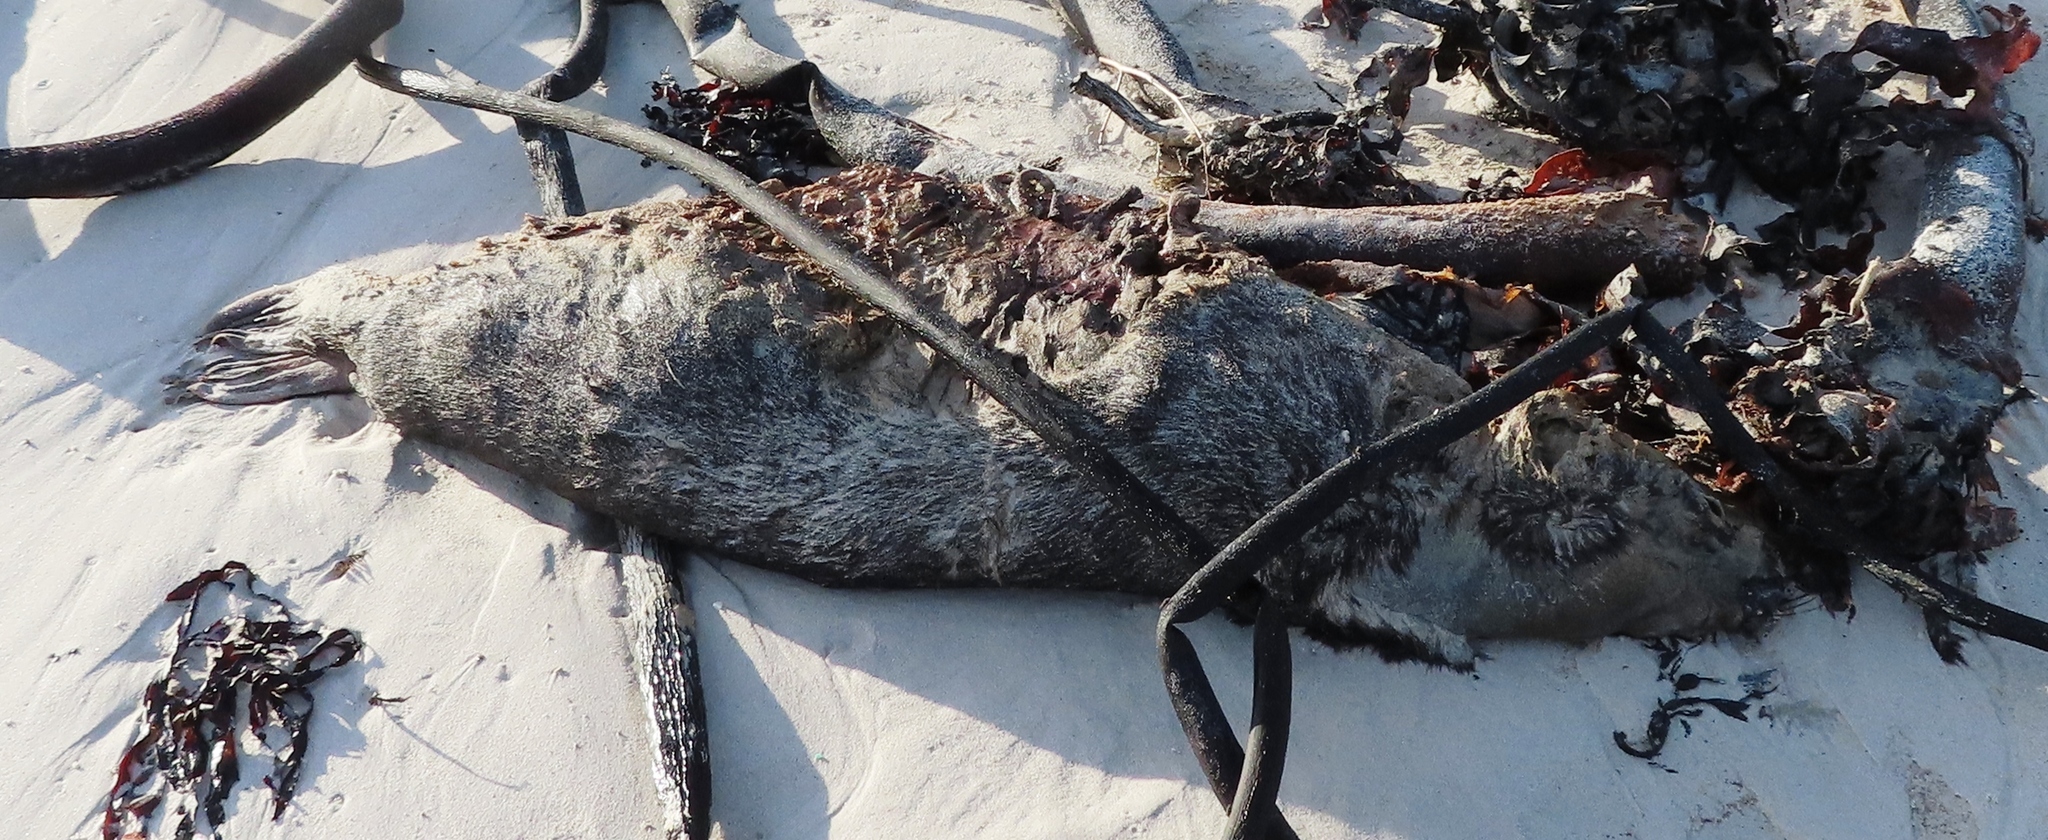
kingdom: Animalia
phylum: Chordata
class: Mammalia
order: Carnivora
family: Otariidae
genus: Arctocephalus
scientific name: Arctocephalus pusillus
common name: Brown fur seal
